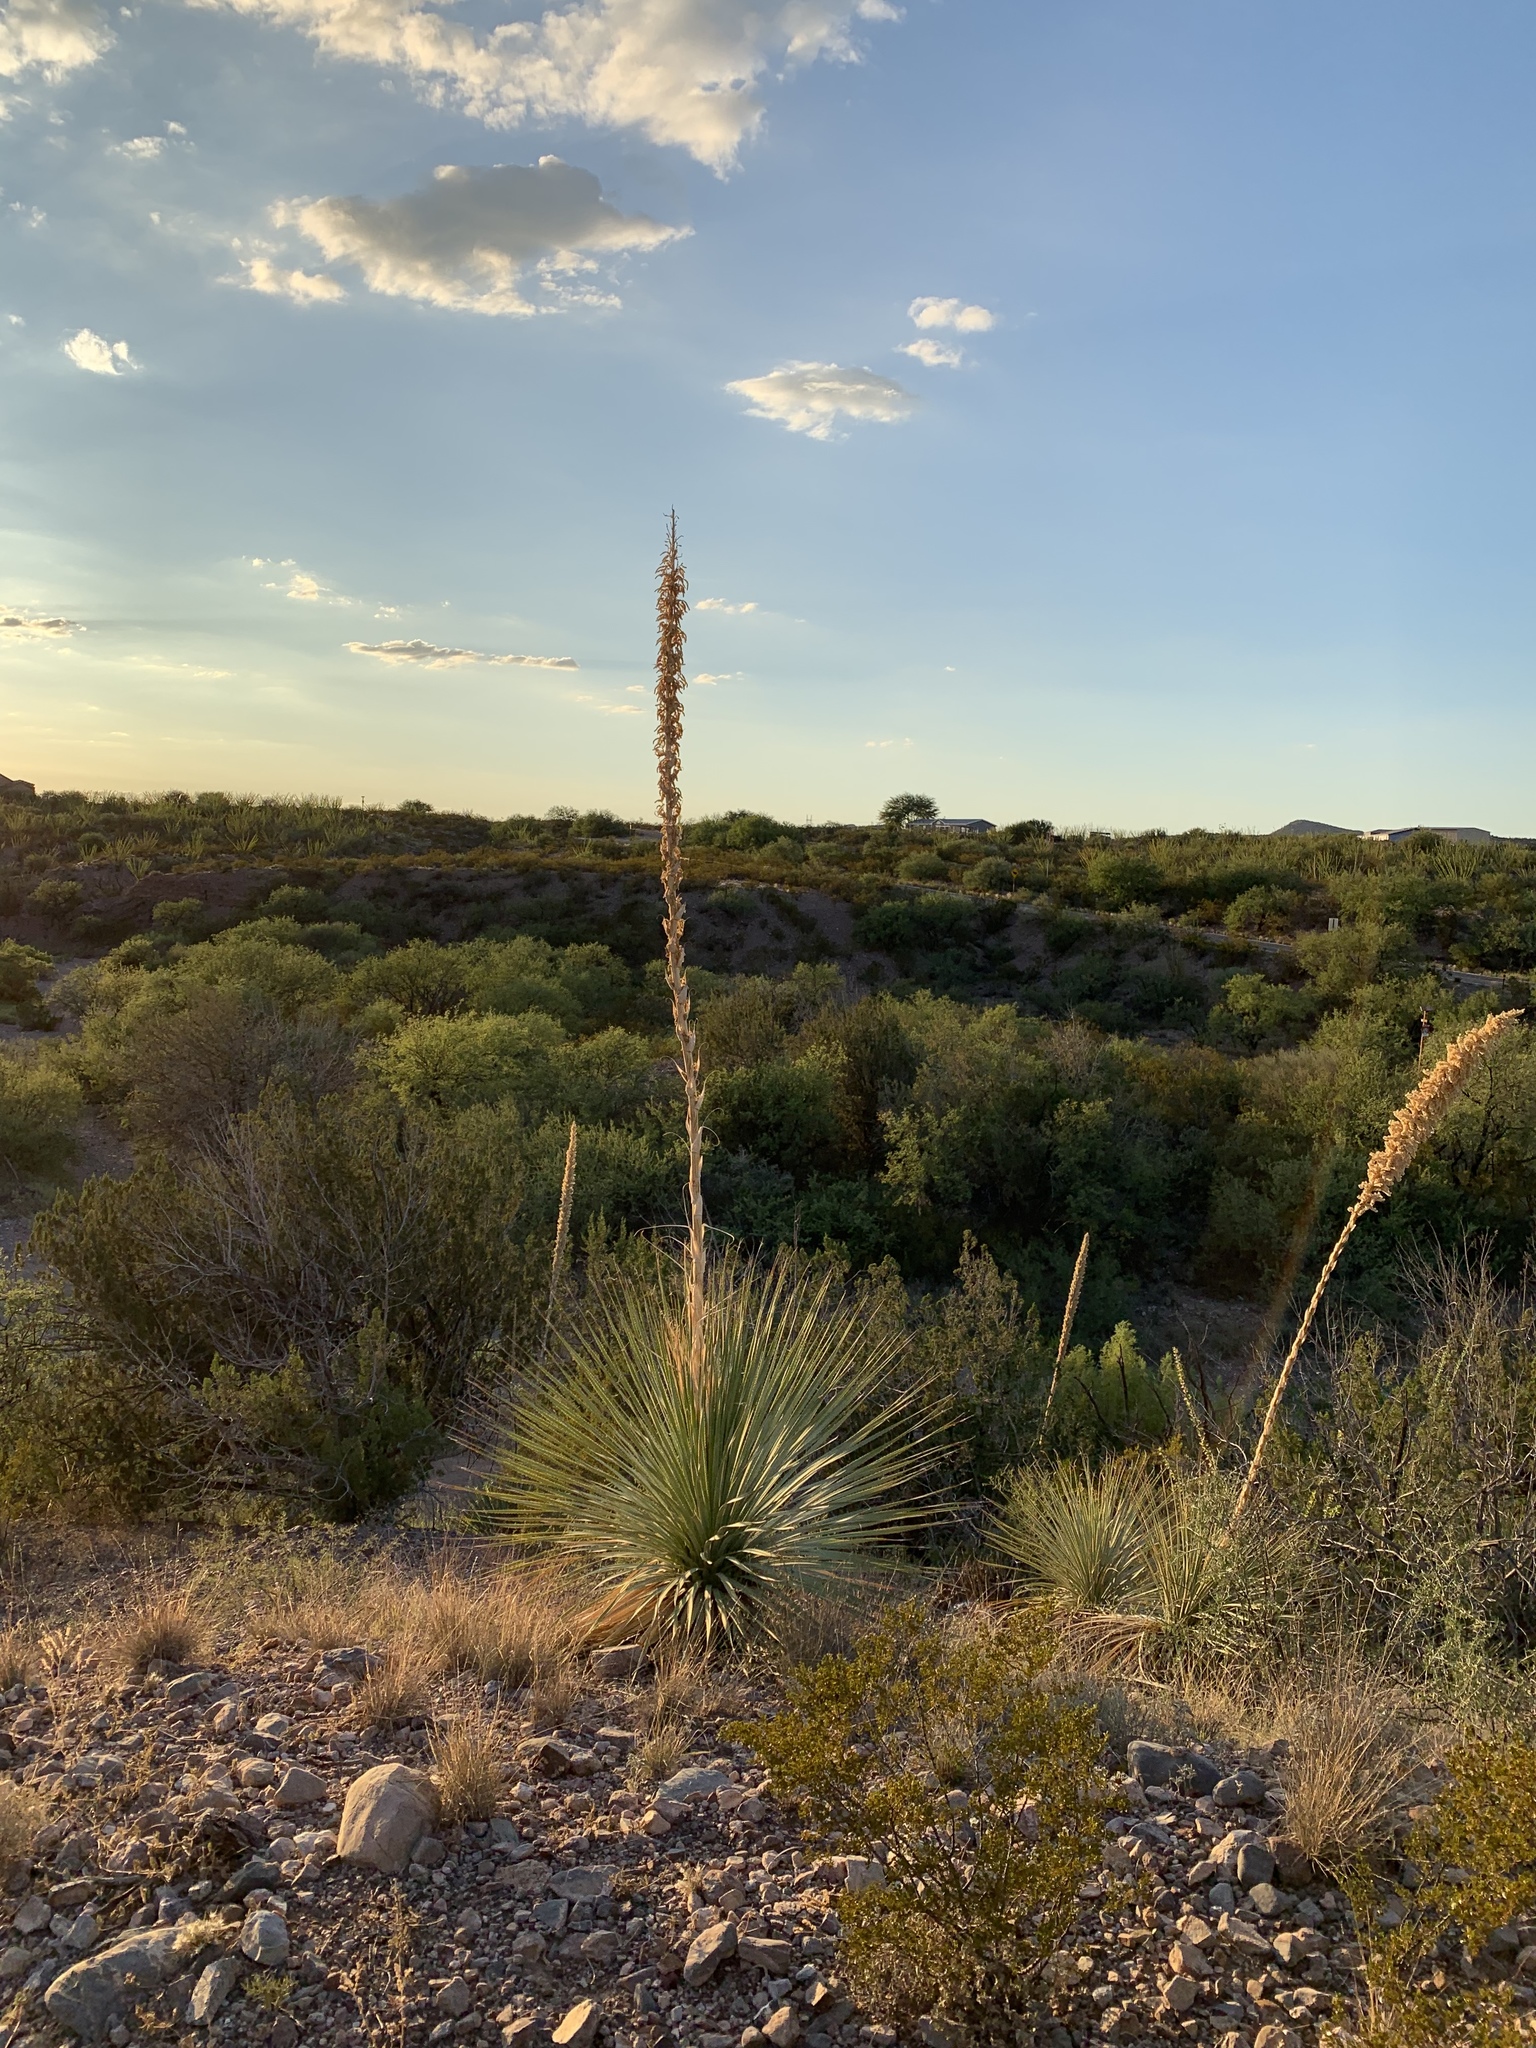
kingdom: Plantae
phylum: Tracheophyta
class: Liliopsida
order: Asparagales
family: Asparagaceae
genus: Dasylirion
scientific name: Dasylirion wheeleri
